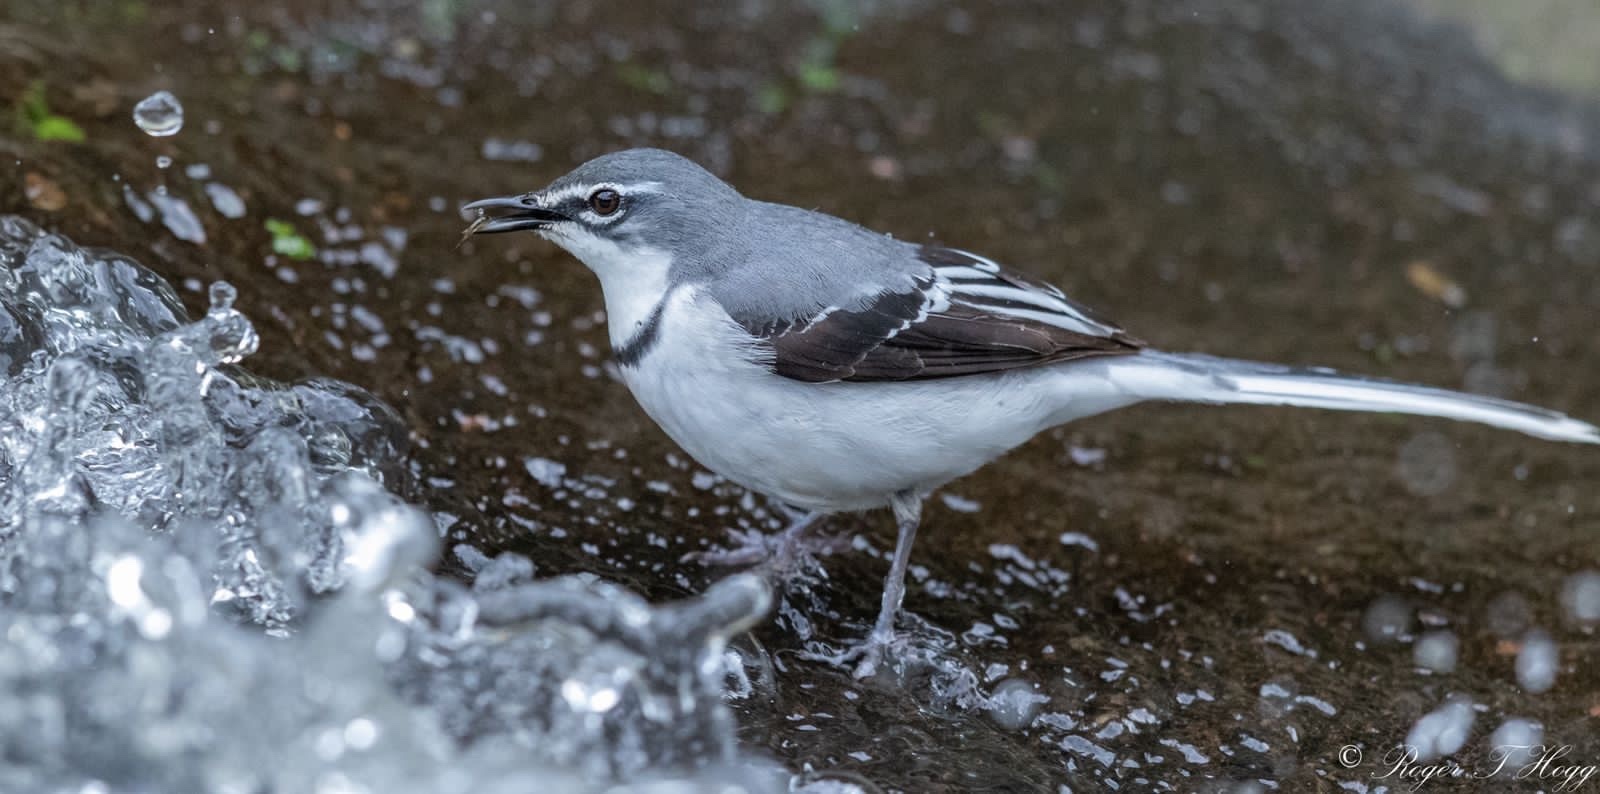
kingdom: Animalia
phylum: Chordata
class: Aves
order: Passeriformes
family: Motacillidae
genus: Motacilla
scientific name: Motacilla clara
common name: Mountain wagtail
